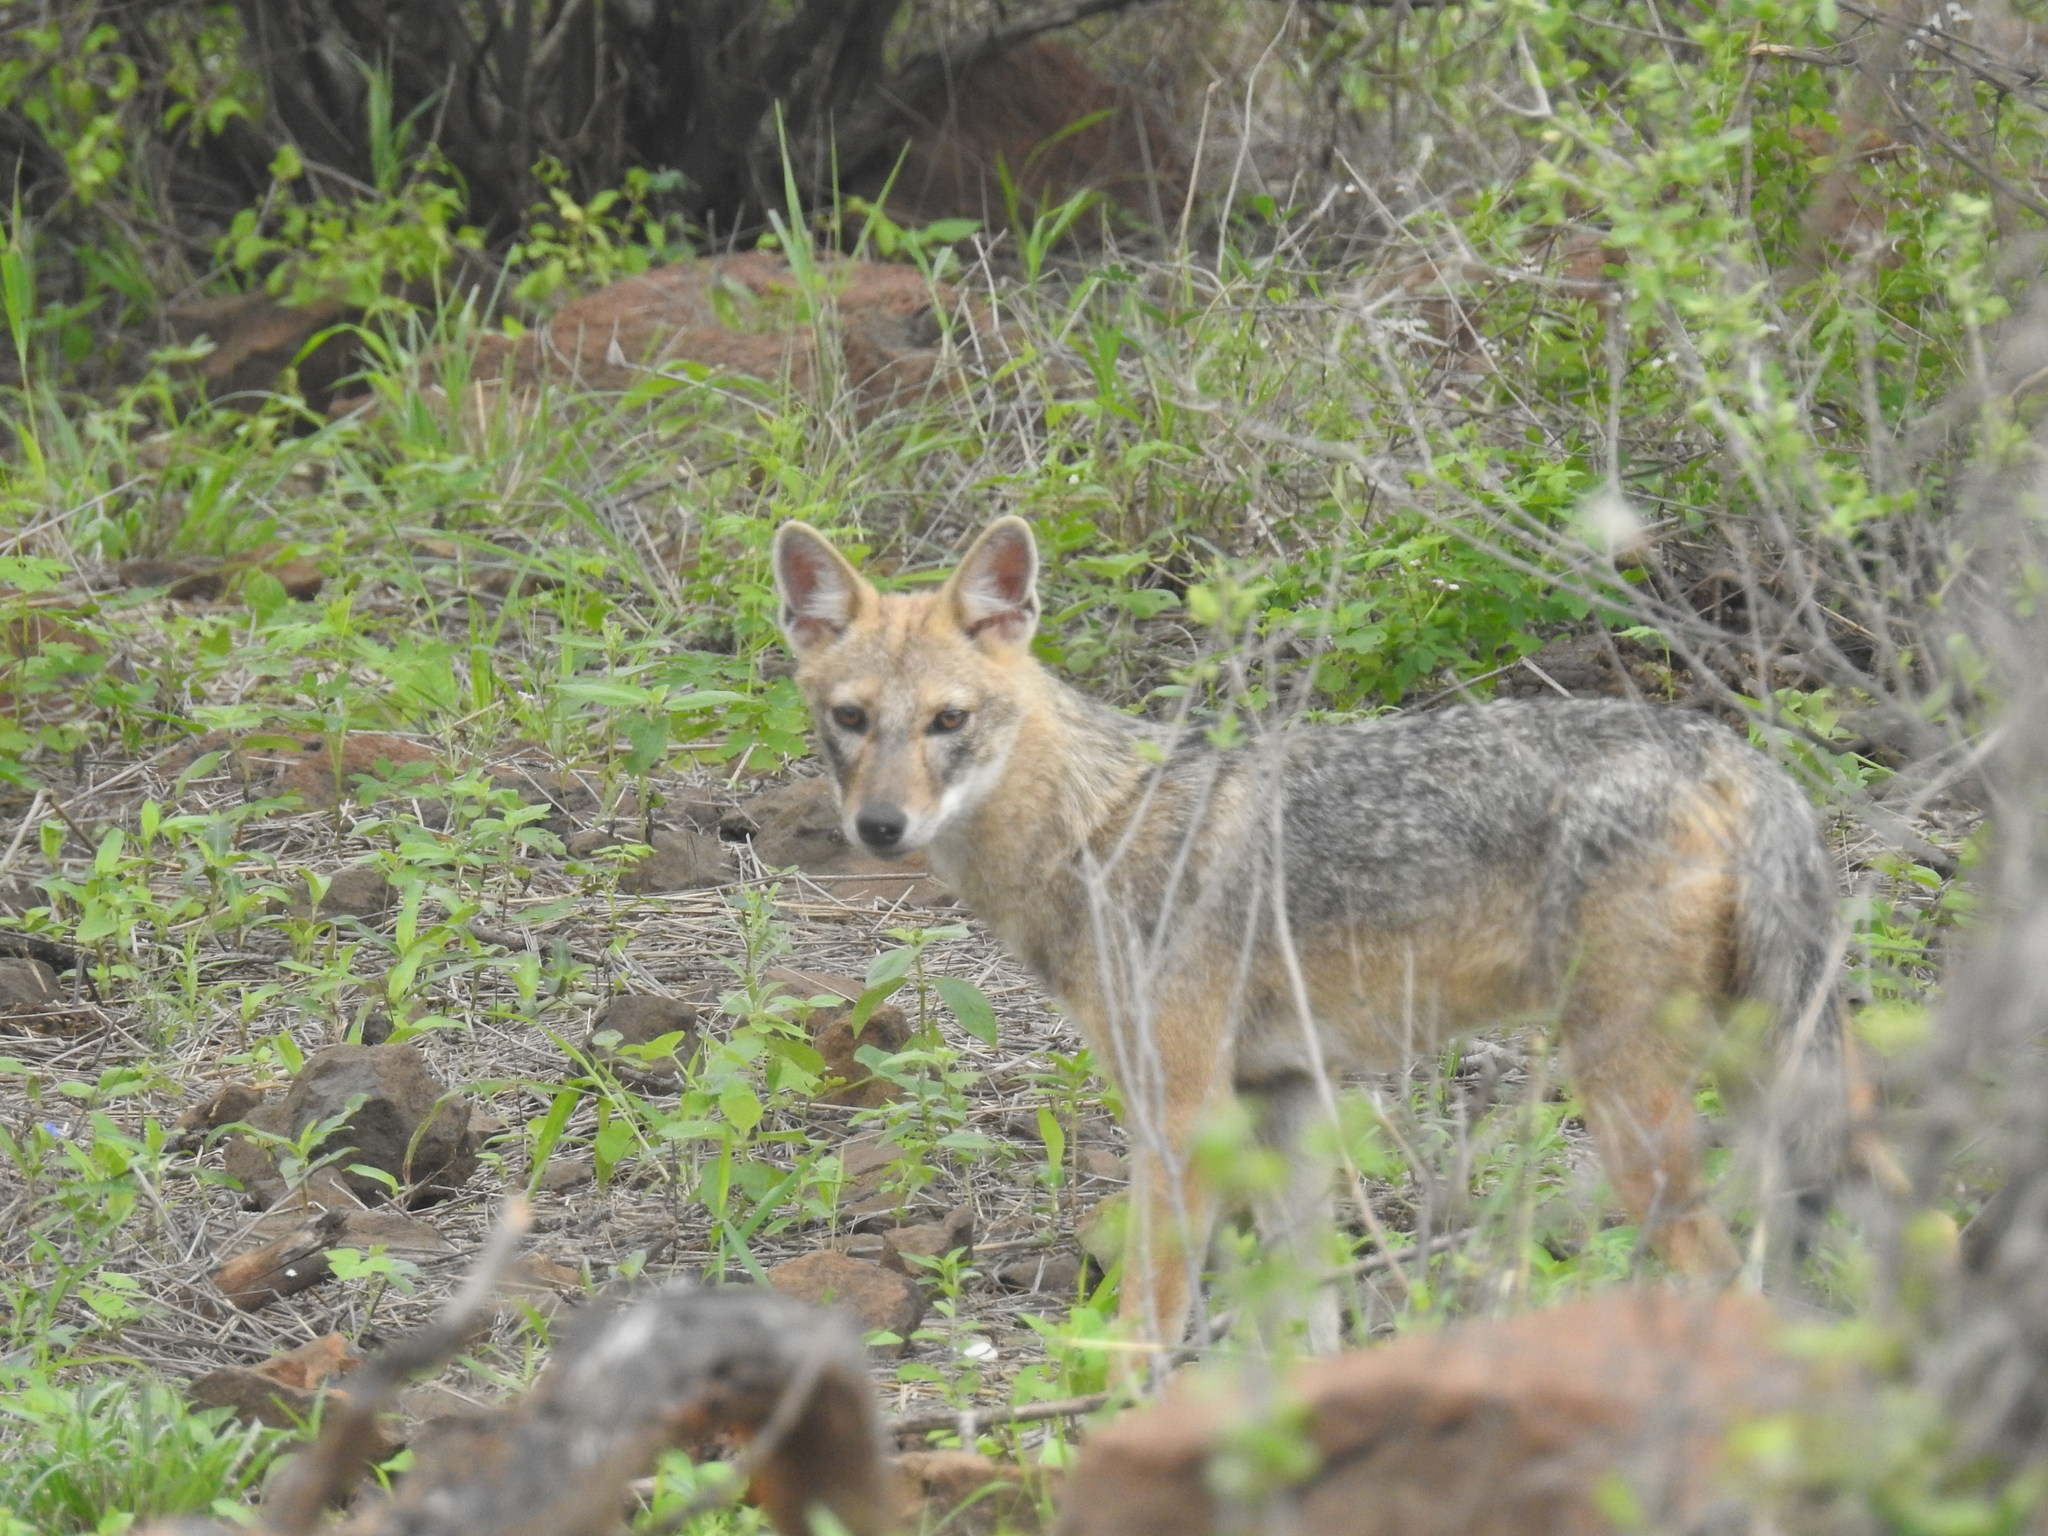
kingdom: Animalia
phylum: Chordata
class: Mammalia
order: Carnivora
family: Canidae
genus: Canis
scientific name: Canis aureus
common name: Golden jackal
